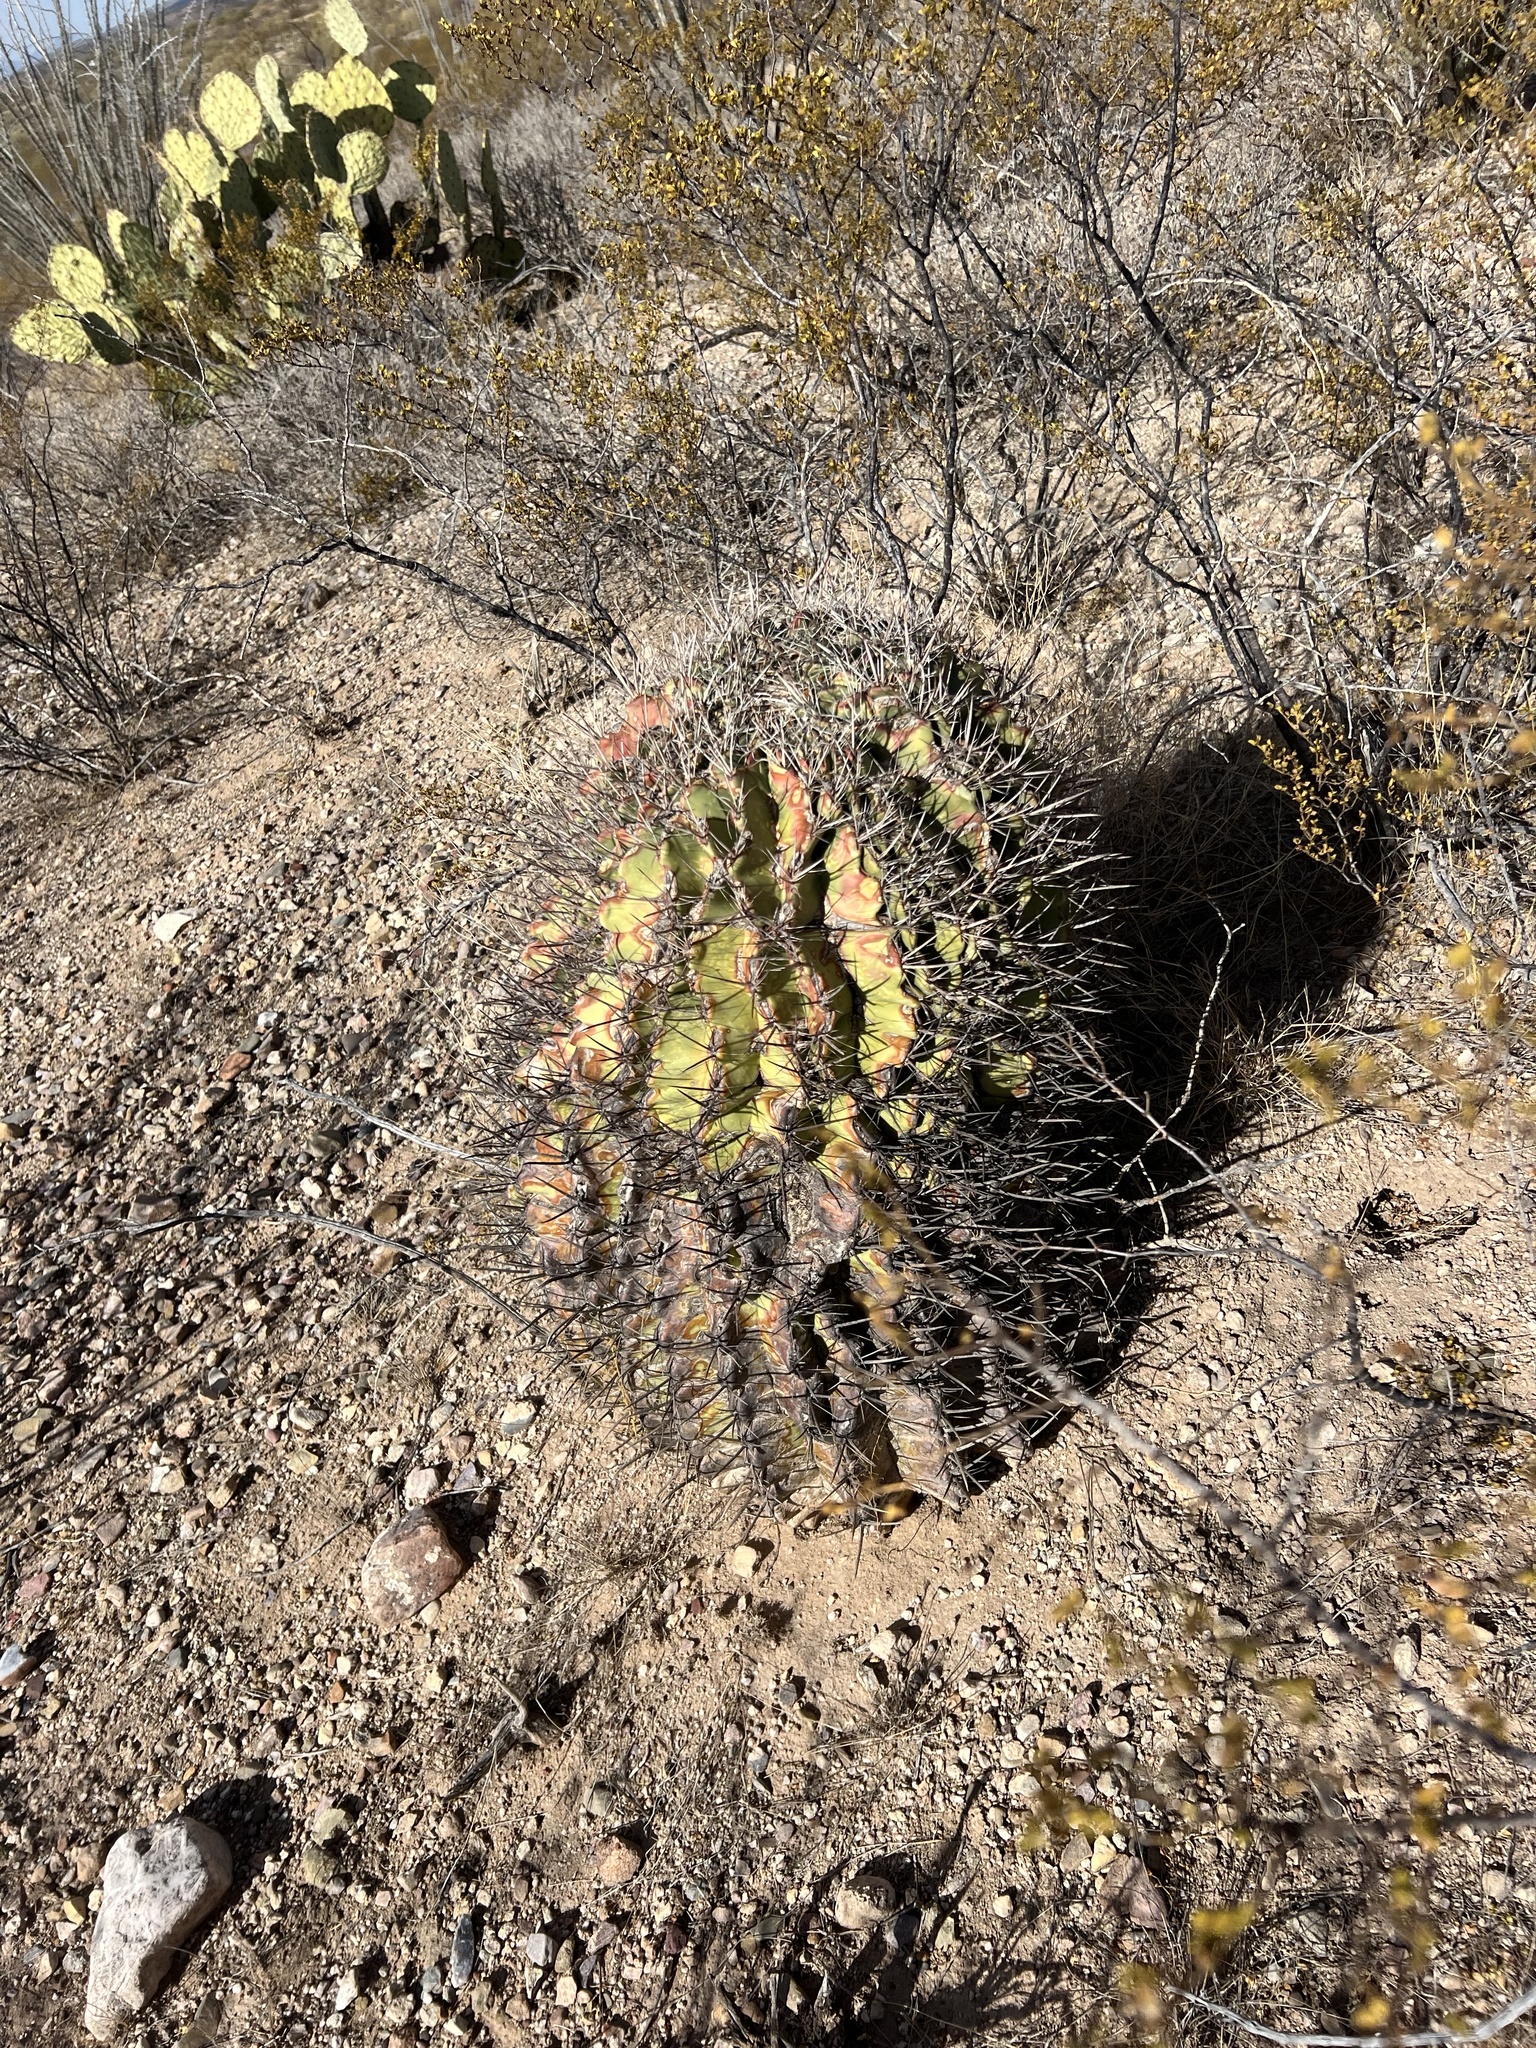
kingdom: Plantae
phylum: Tracheophyta
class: Magnoliopsida
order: Caryophyllales
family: Cactaceae
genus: Ferocactus
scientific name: Ferocactus wislizeni
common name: Candy barrel cactus
